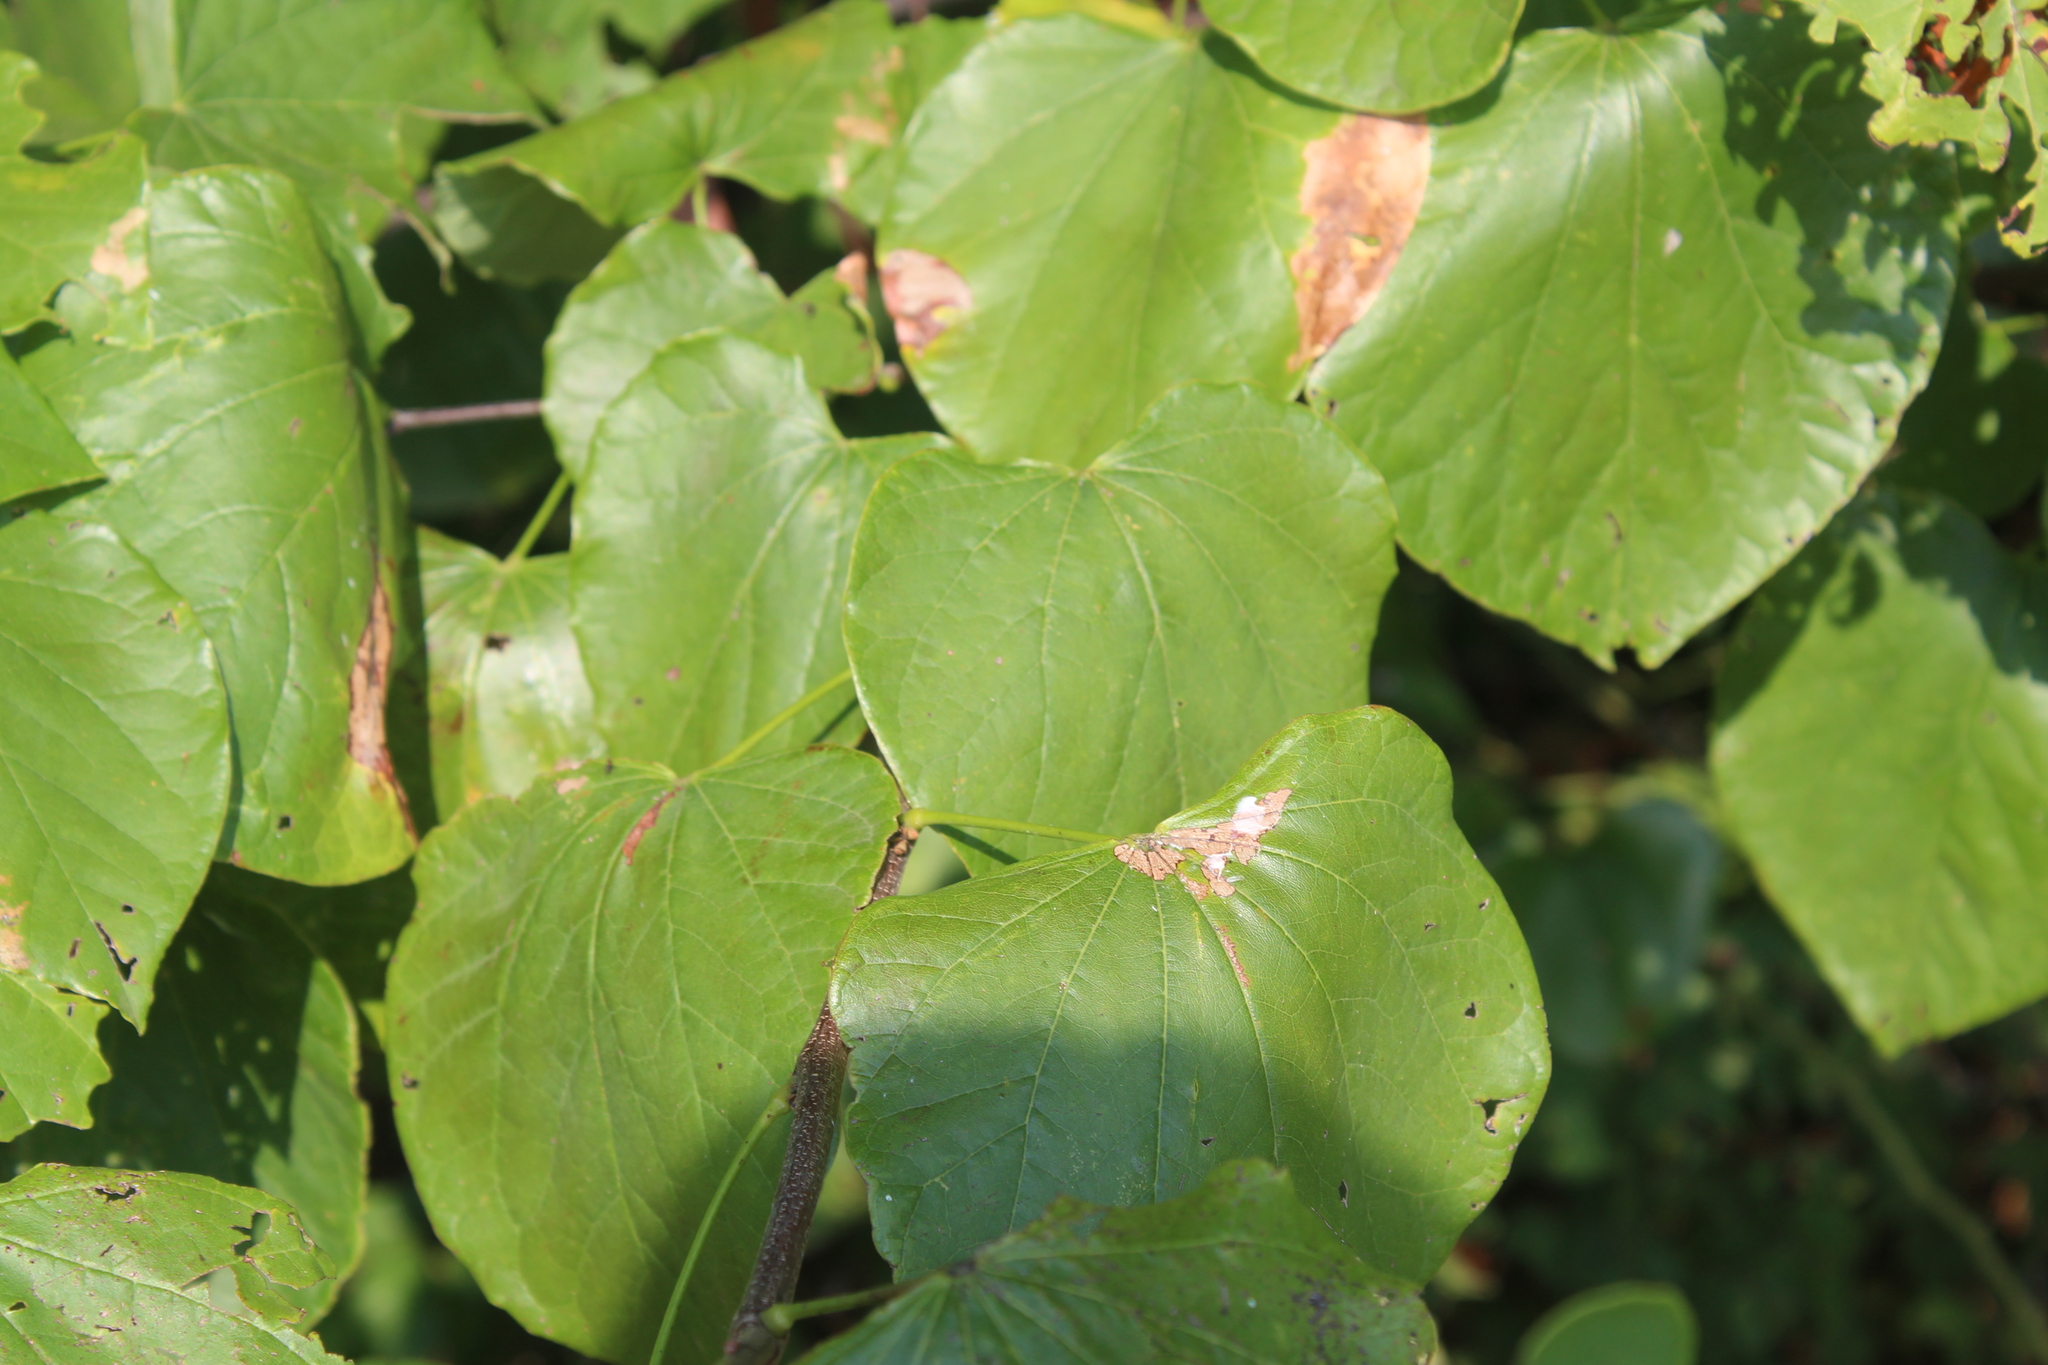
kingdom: Plantae
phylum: Tracheophyta
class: Magnoliopsida
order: Fabales
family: Fabaceae
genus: Cercis
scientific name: Cercis canadensis
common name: Eastern redbud
